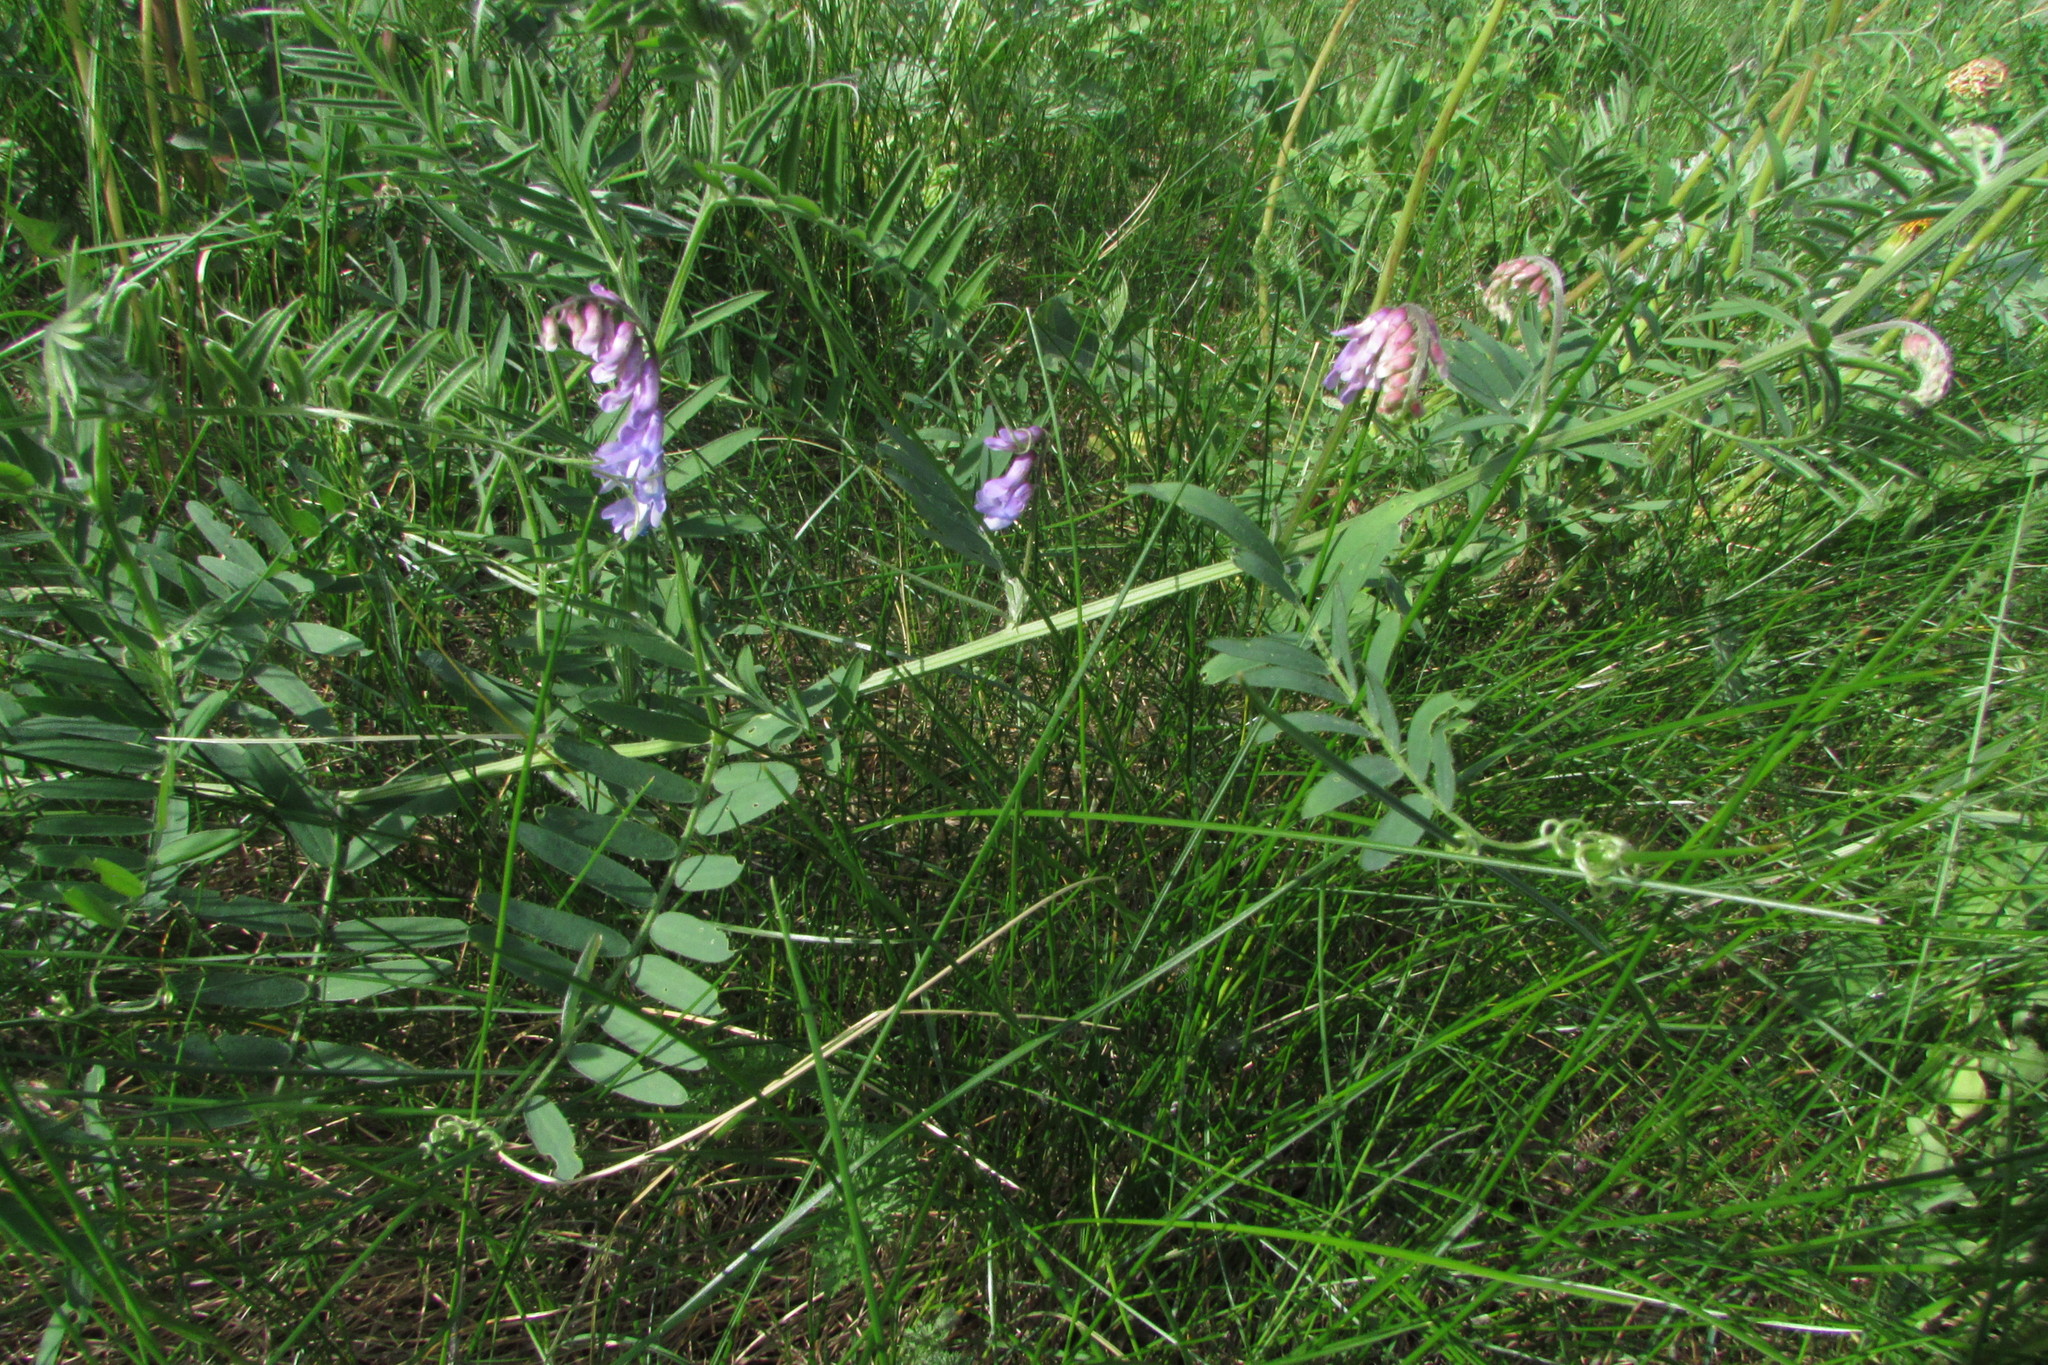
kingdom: Plantae
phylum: Tracheophyta
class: Magnoliopsida
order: Fabales
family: Fabaceae
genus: Vicia
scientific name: Vicia cracca
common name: Bird vetch
